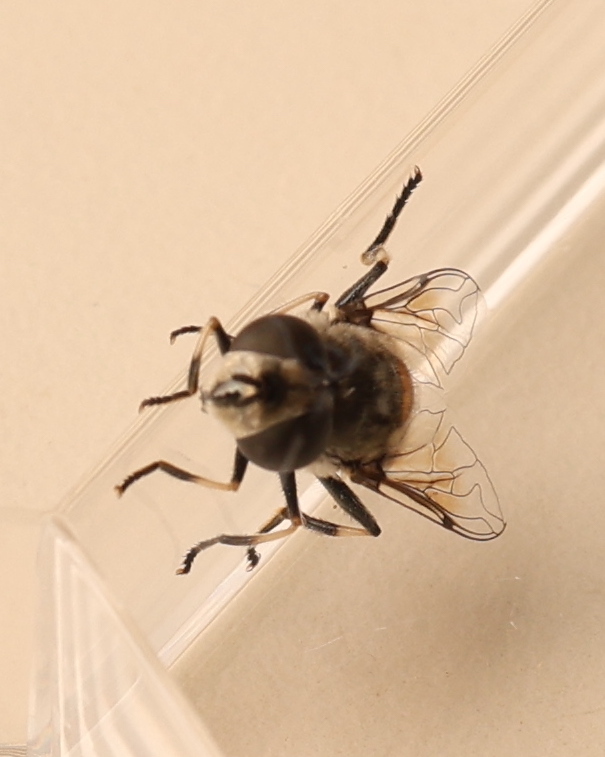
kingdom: Animalia
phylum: Arthropoda
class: Insecta
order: Diptera
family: Syrphidae
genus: Eristalis
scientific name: Eristalis dimidiata
